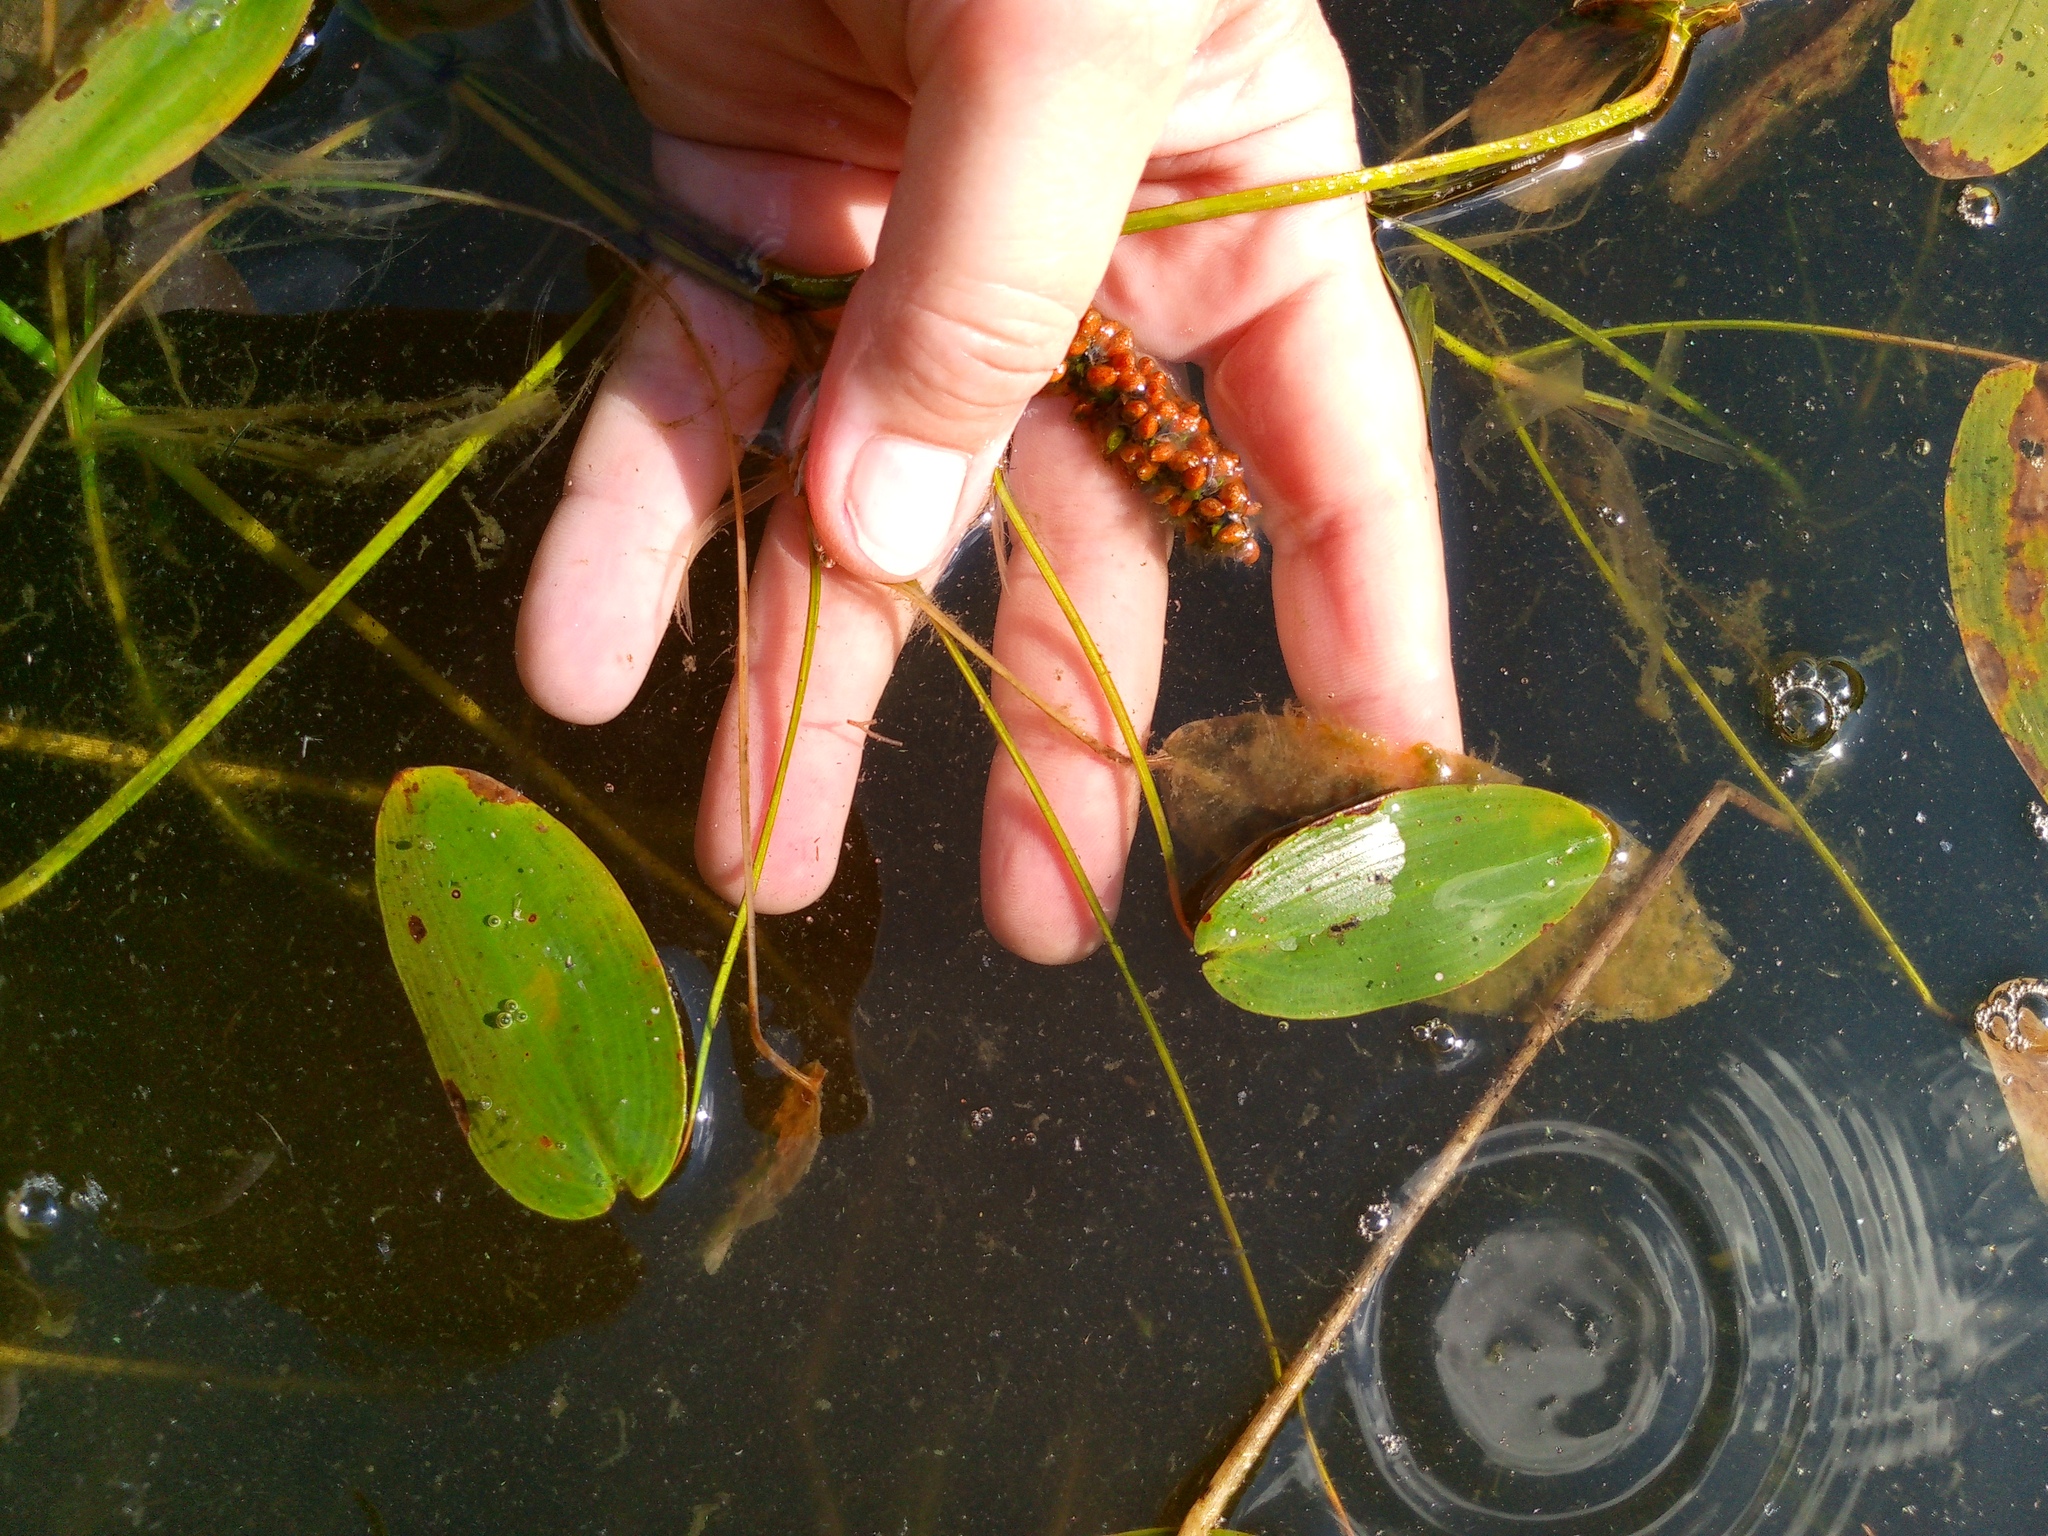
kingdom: Plantae
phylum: Tracheophyta
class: Liliopsida
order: Alismatales
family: Potamogetonaceae
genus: Potamogeton
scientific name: Potamogeton natans
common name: Broad-leaved pondweed
